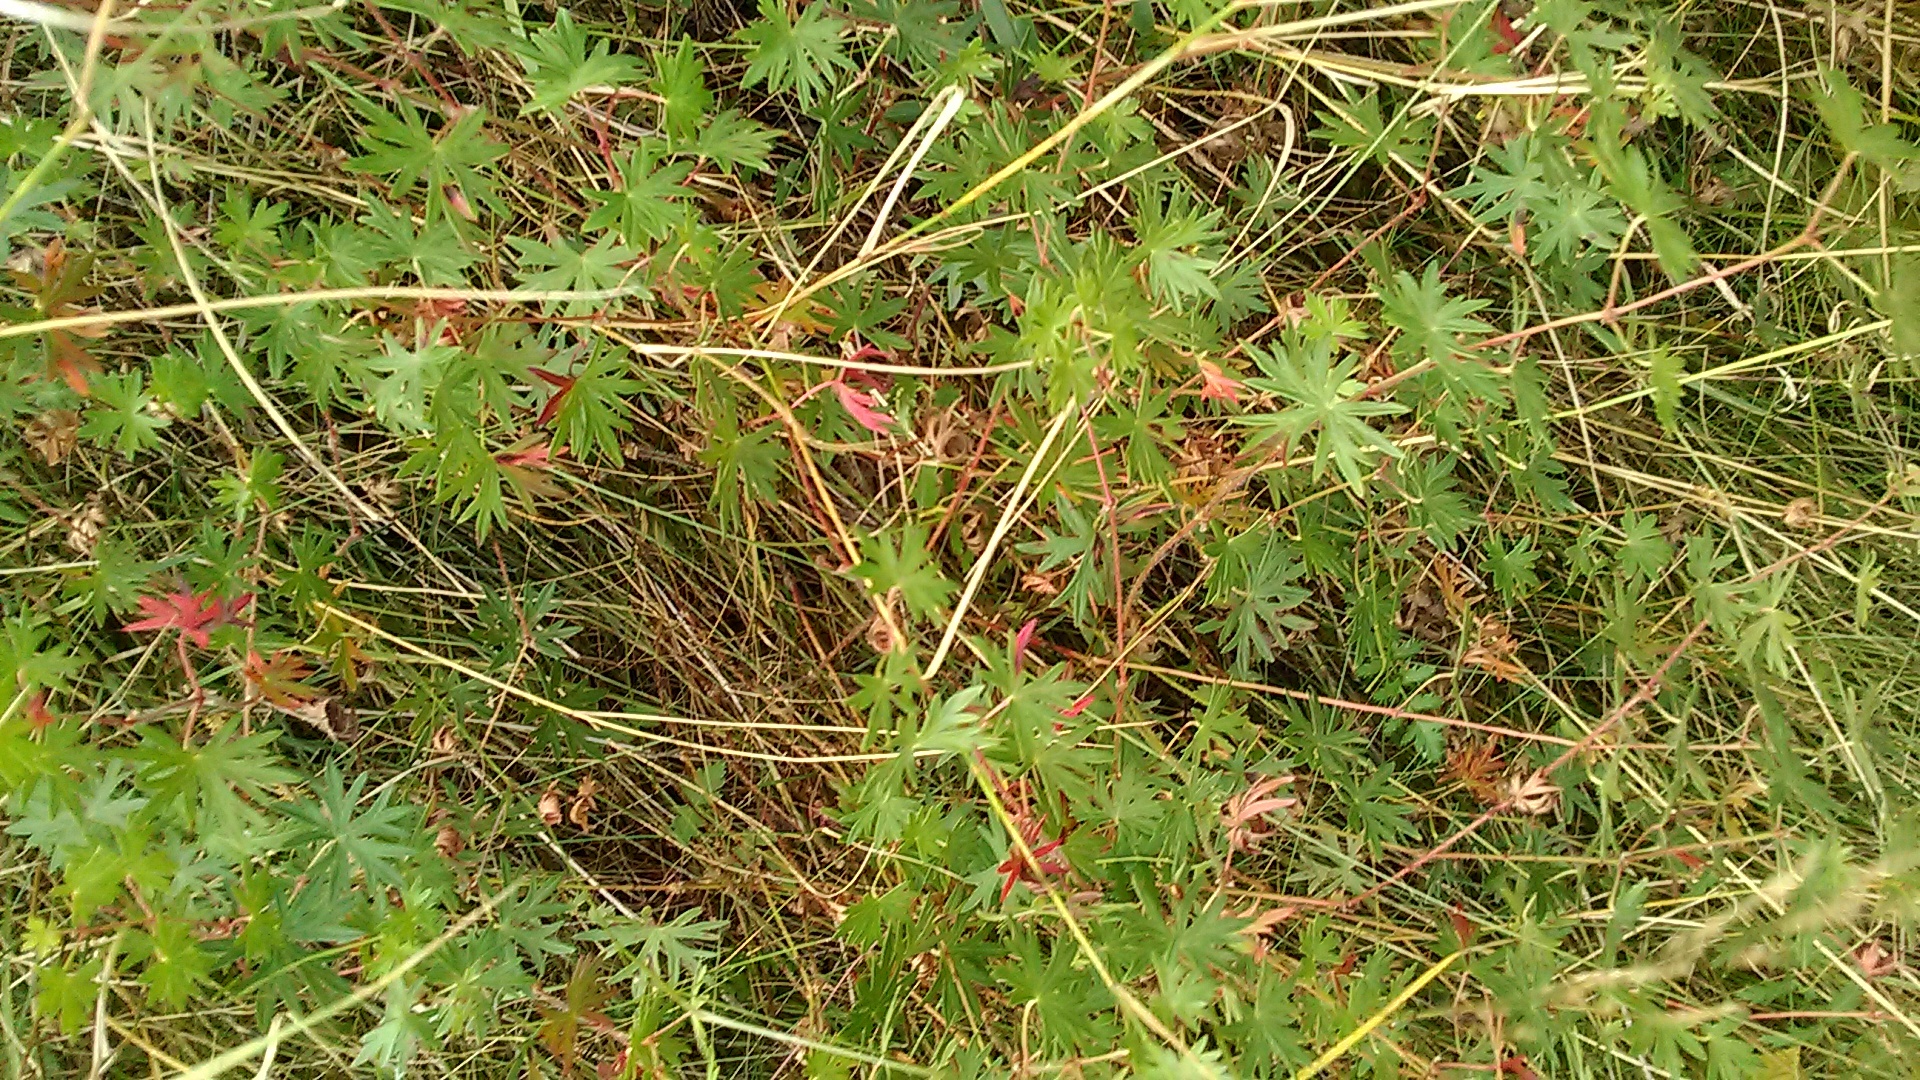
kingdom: Plantae
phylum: Tracheophyta
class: Magnoliopsida
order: Geraniales
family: Geraniaceae
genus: Geranium
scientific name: Geranium sanguineum
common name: Bloody crane's-bill
